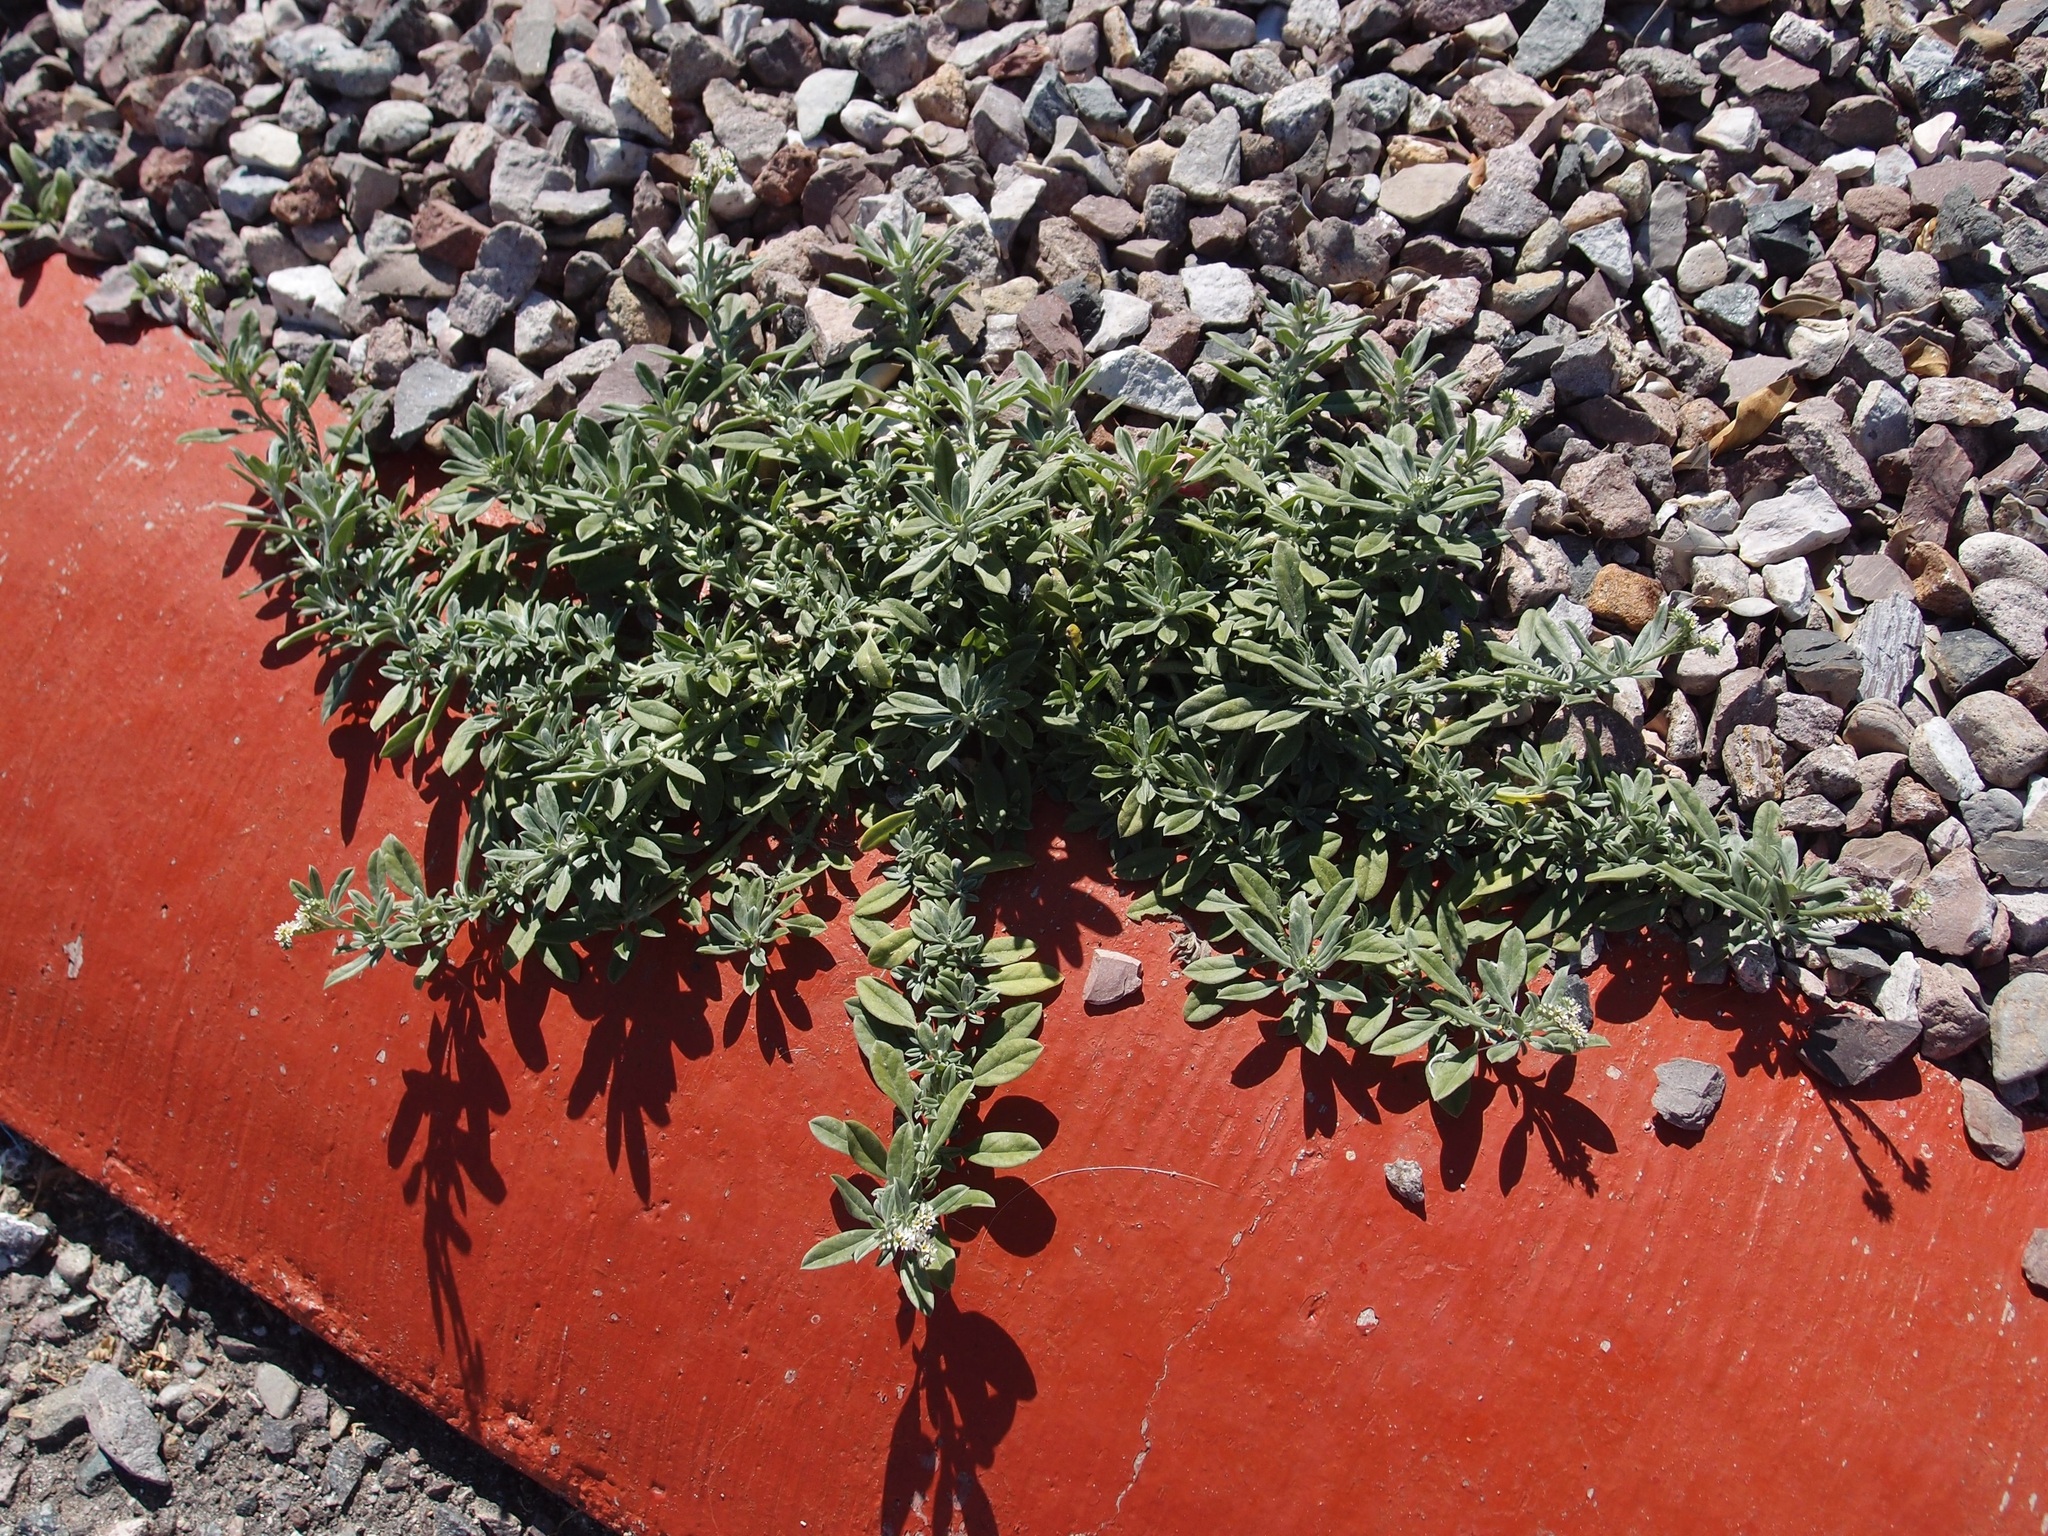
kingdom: Plantae
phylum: Tracheophyta
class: Magnoliopsida
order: Boraginales
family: Heliotropiaceae
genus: Euploca
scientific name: Euploca procumbens
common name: Fourspike heliotrope
